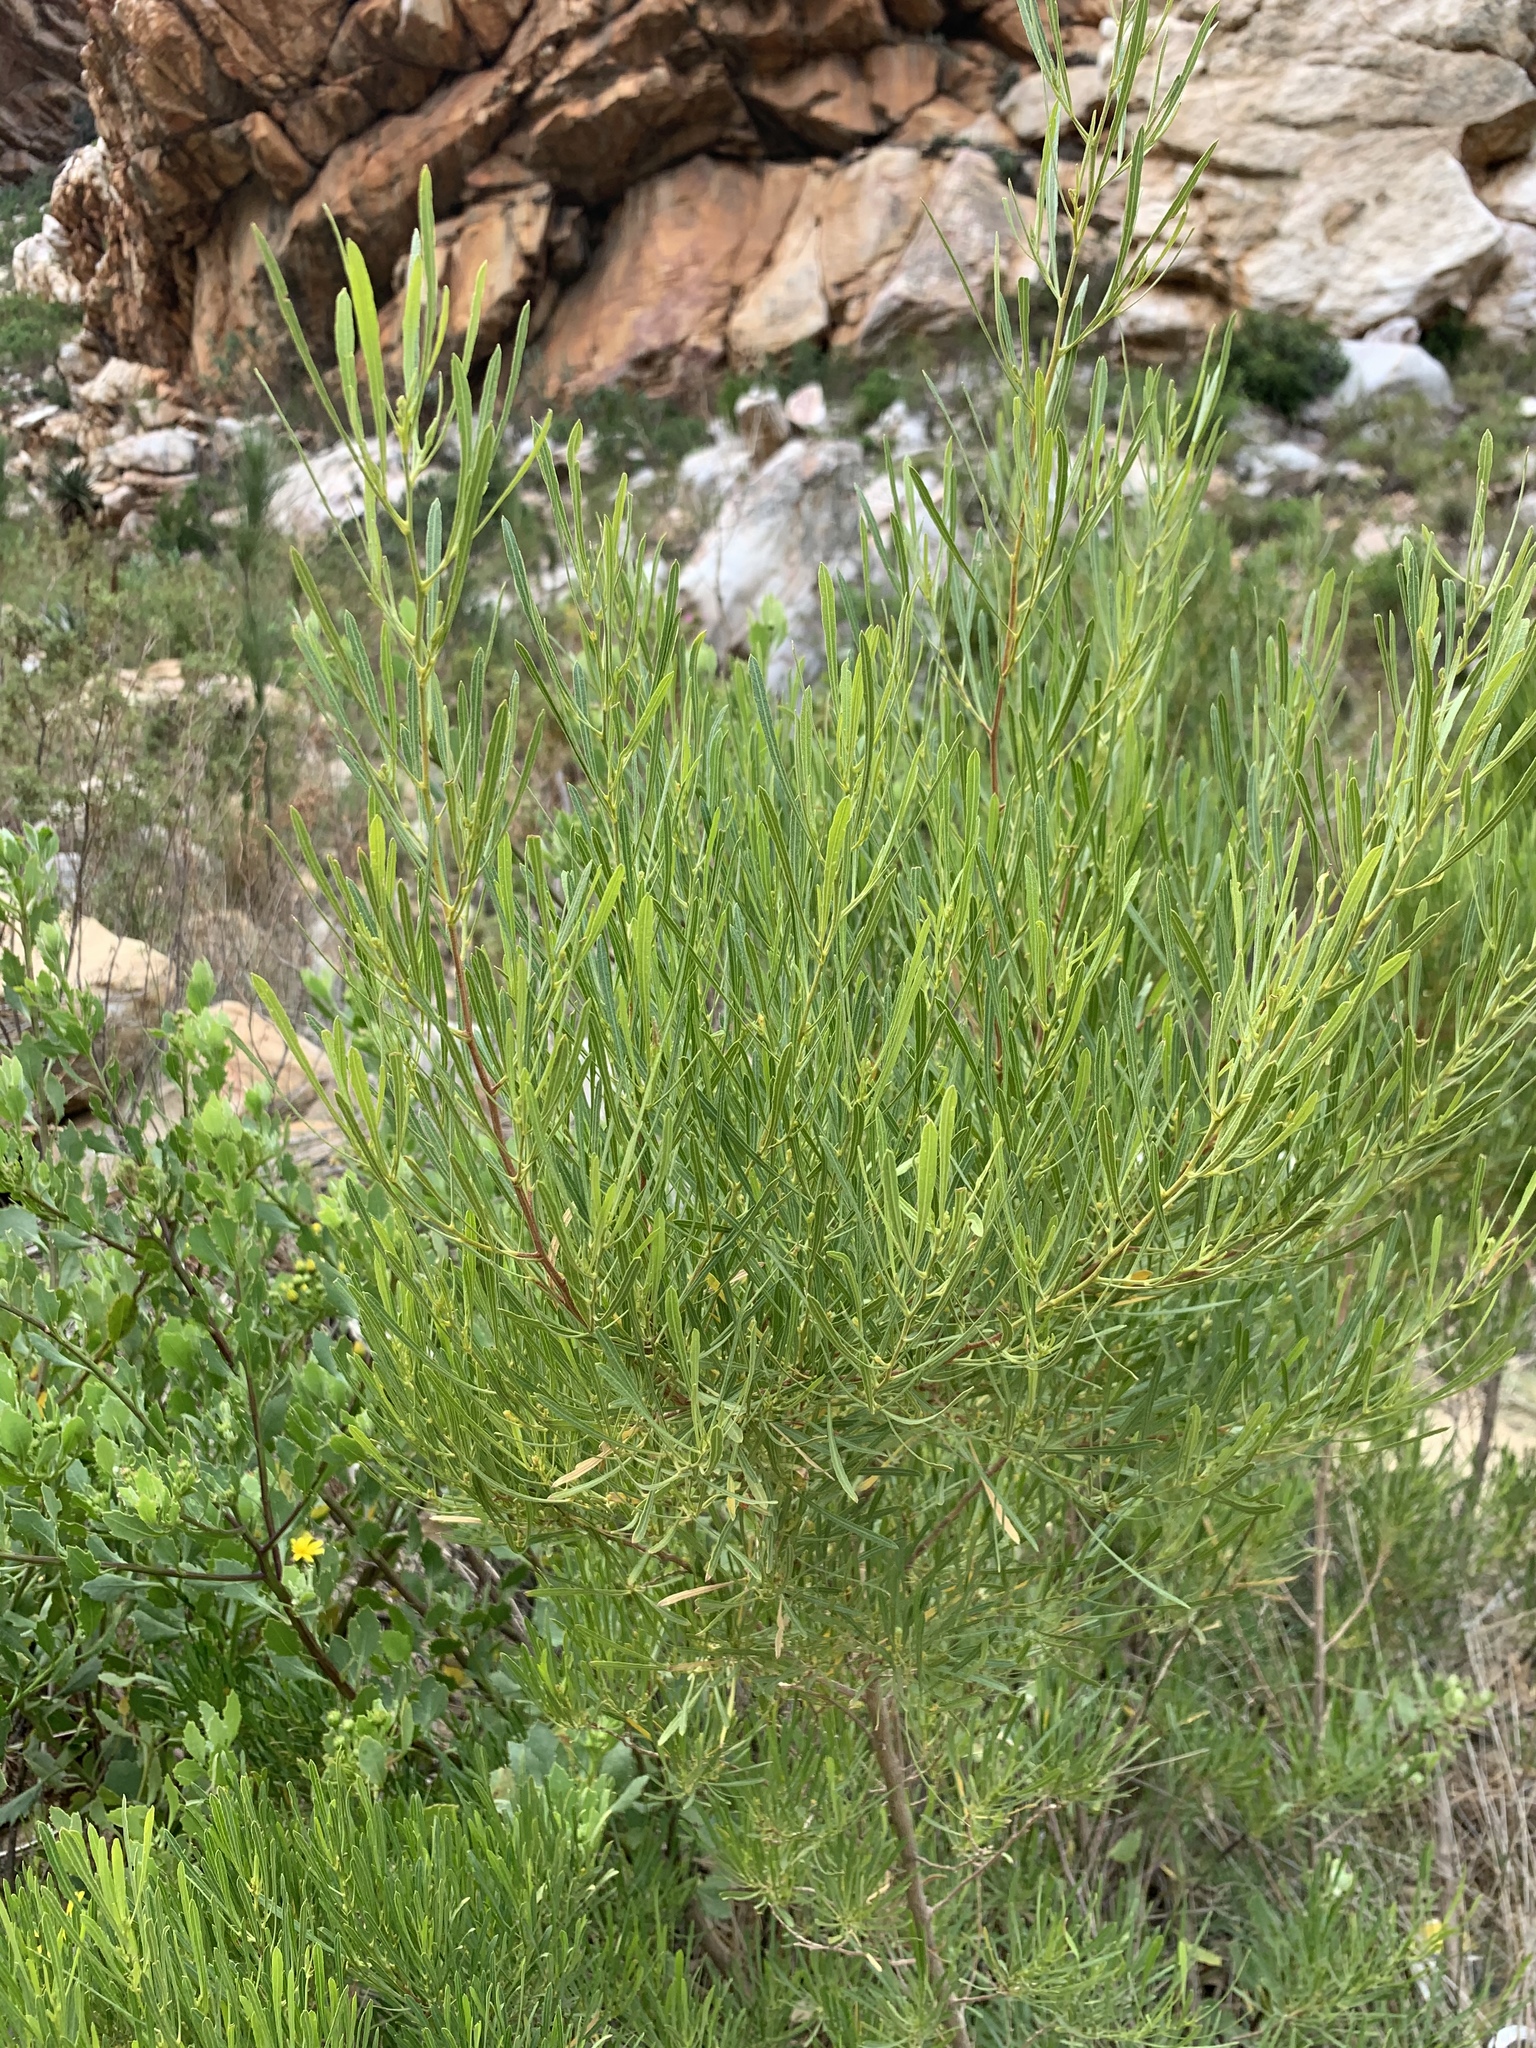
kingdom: Plantae
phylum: Tracheophyta
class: Magnoliopsida
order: Sapindales
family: Sapindaceae
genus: Dodonaea
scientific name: Dodonaea viscosa
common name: Hopbush
